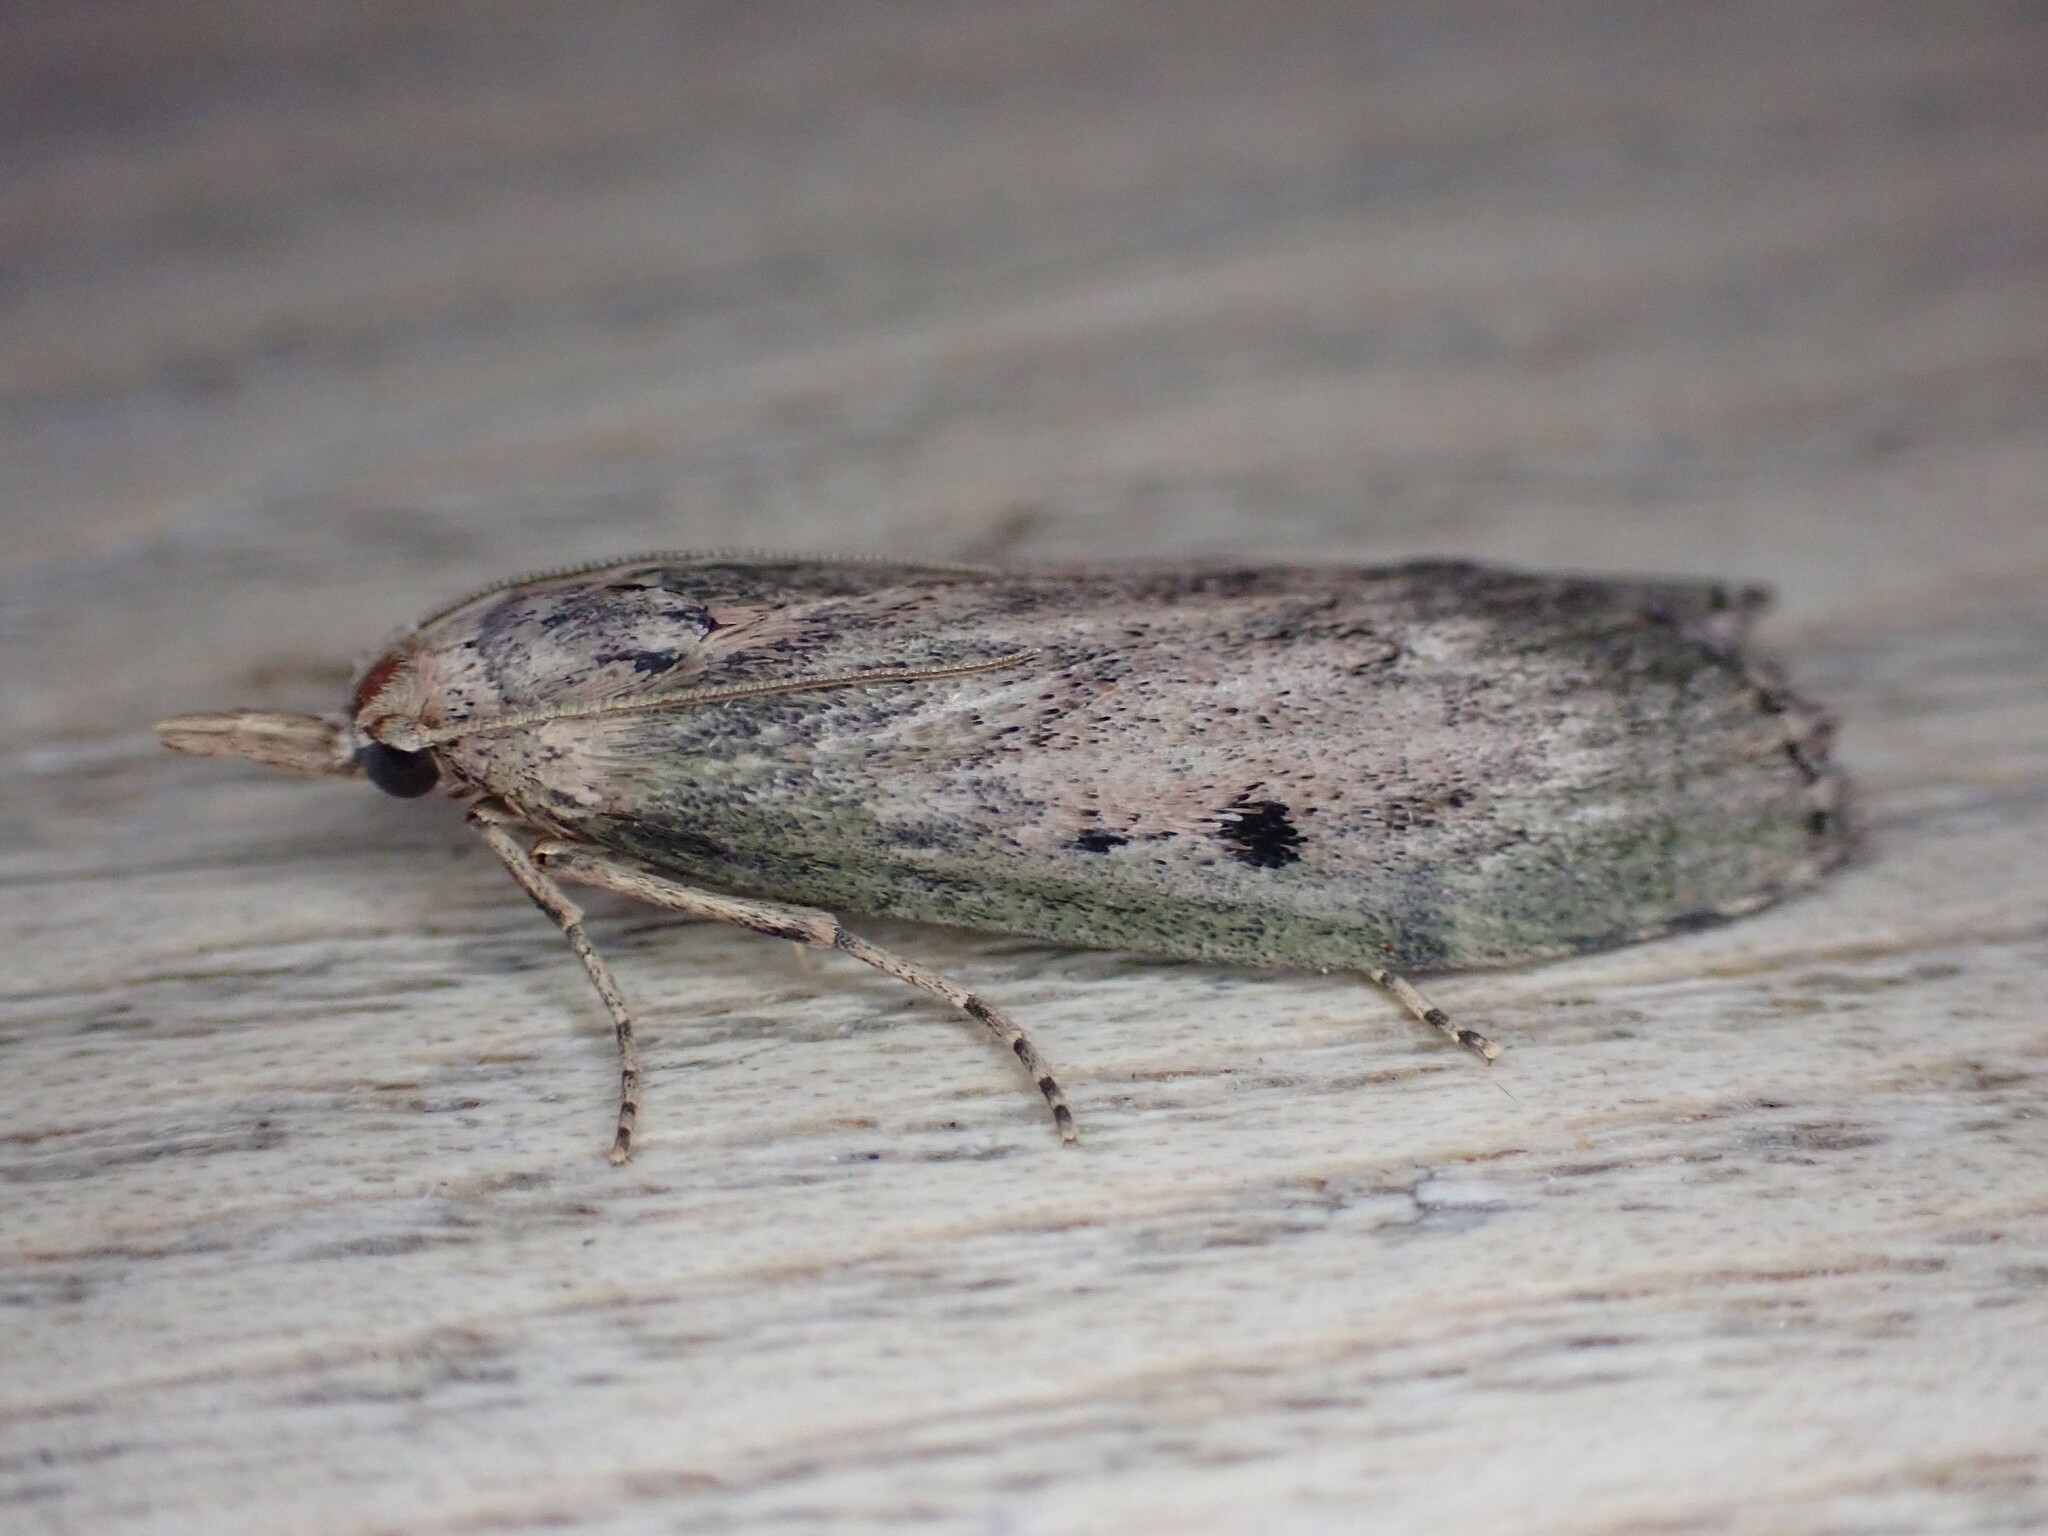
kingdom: Animalia
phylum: Arthropoda
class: Insecta
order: Lepidoptera
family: Pyralidae
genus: Aphomia
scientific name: Aphomia sociella
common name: Bee moth
